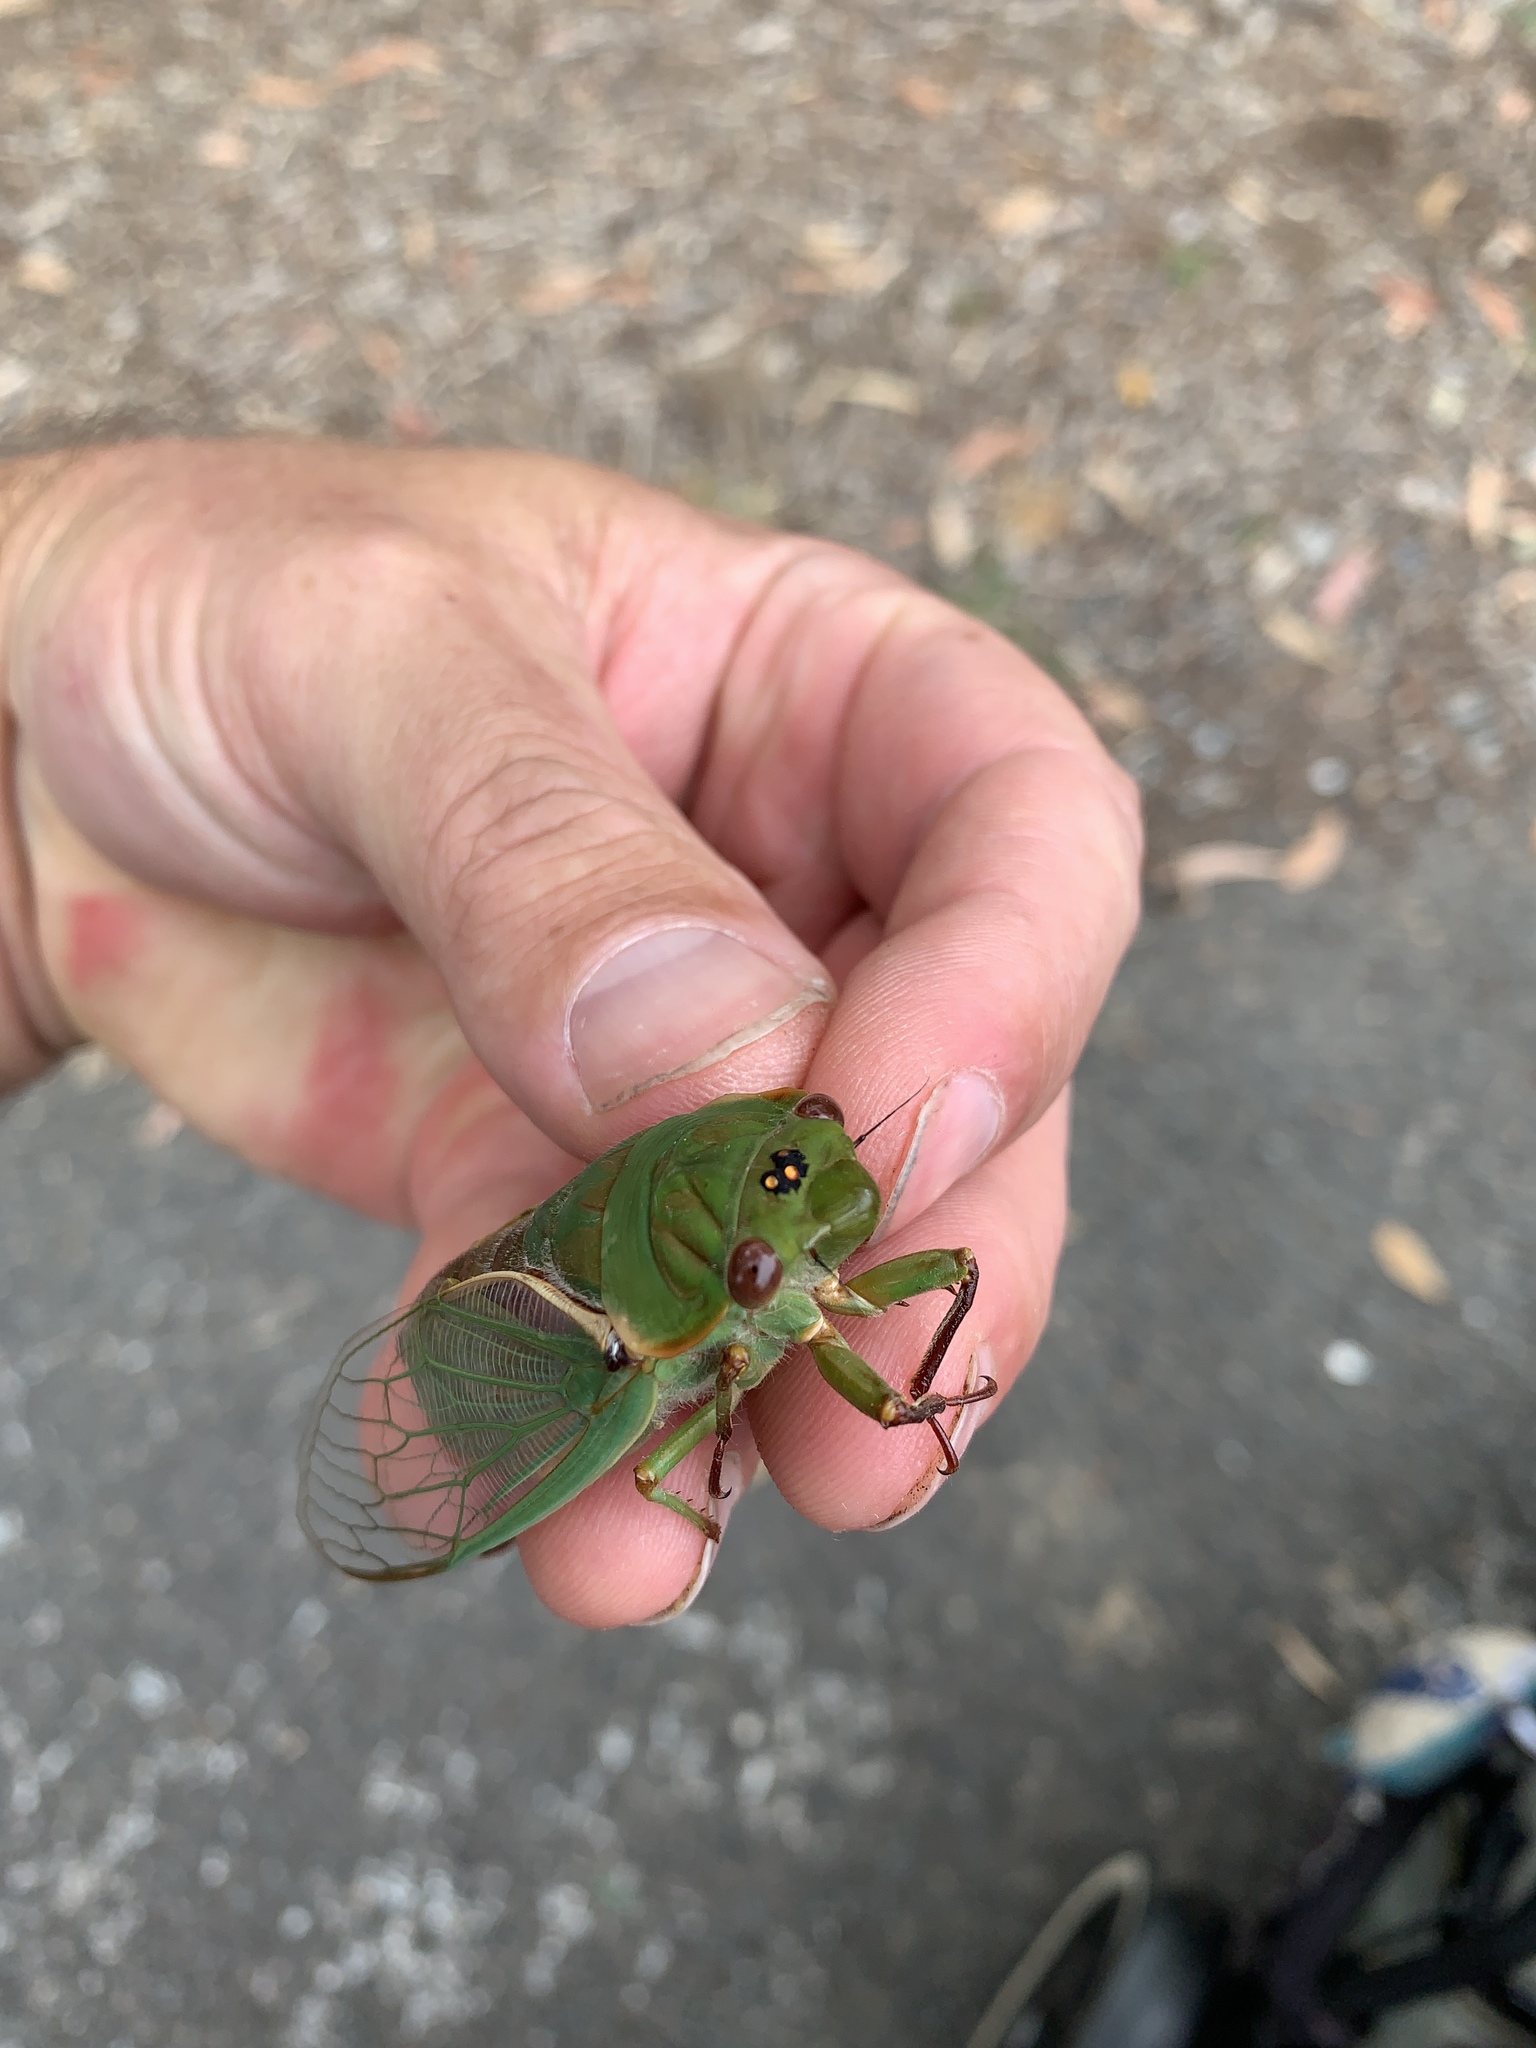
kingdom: Animalia
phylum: Arthropoda
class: Insecta
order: Hemiptera
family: Cicadidae
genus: Cyclochila
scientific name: Cyclochila australasiae
